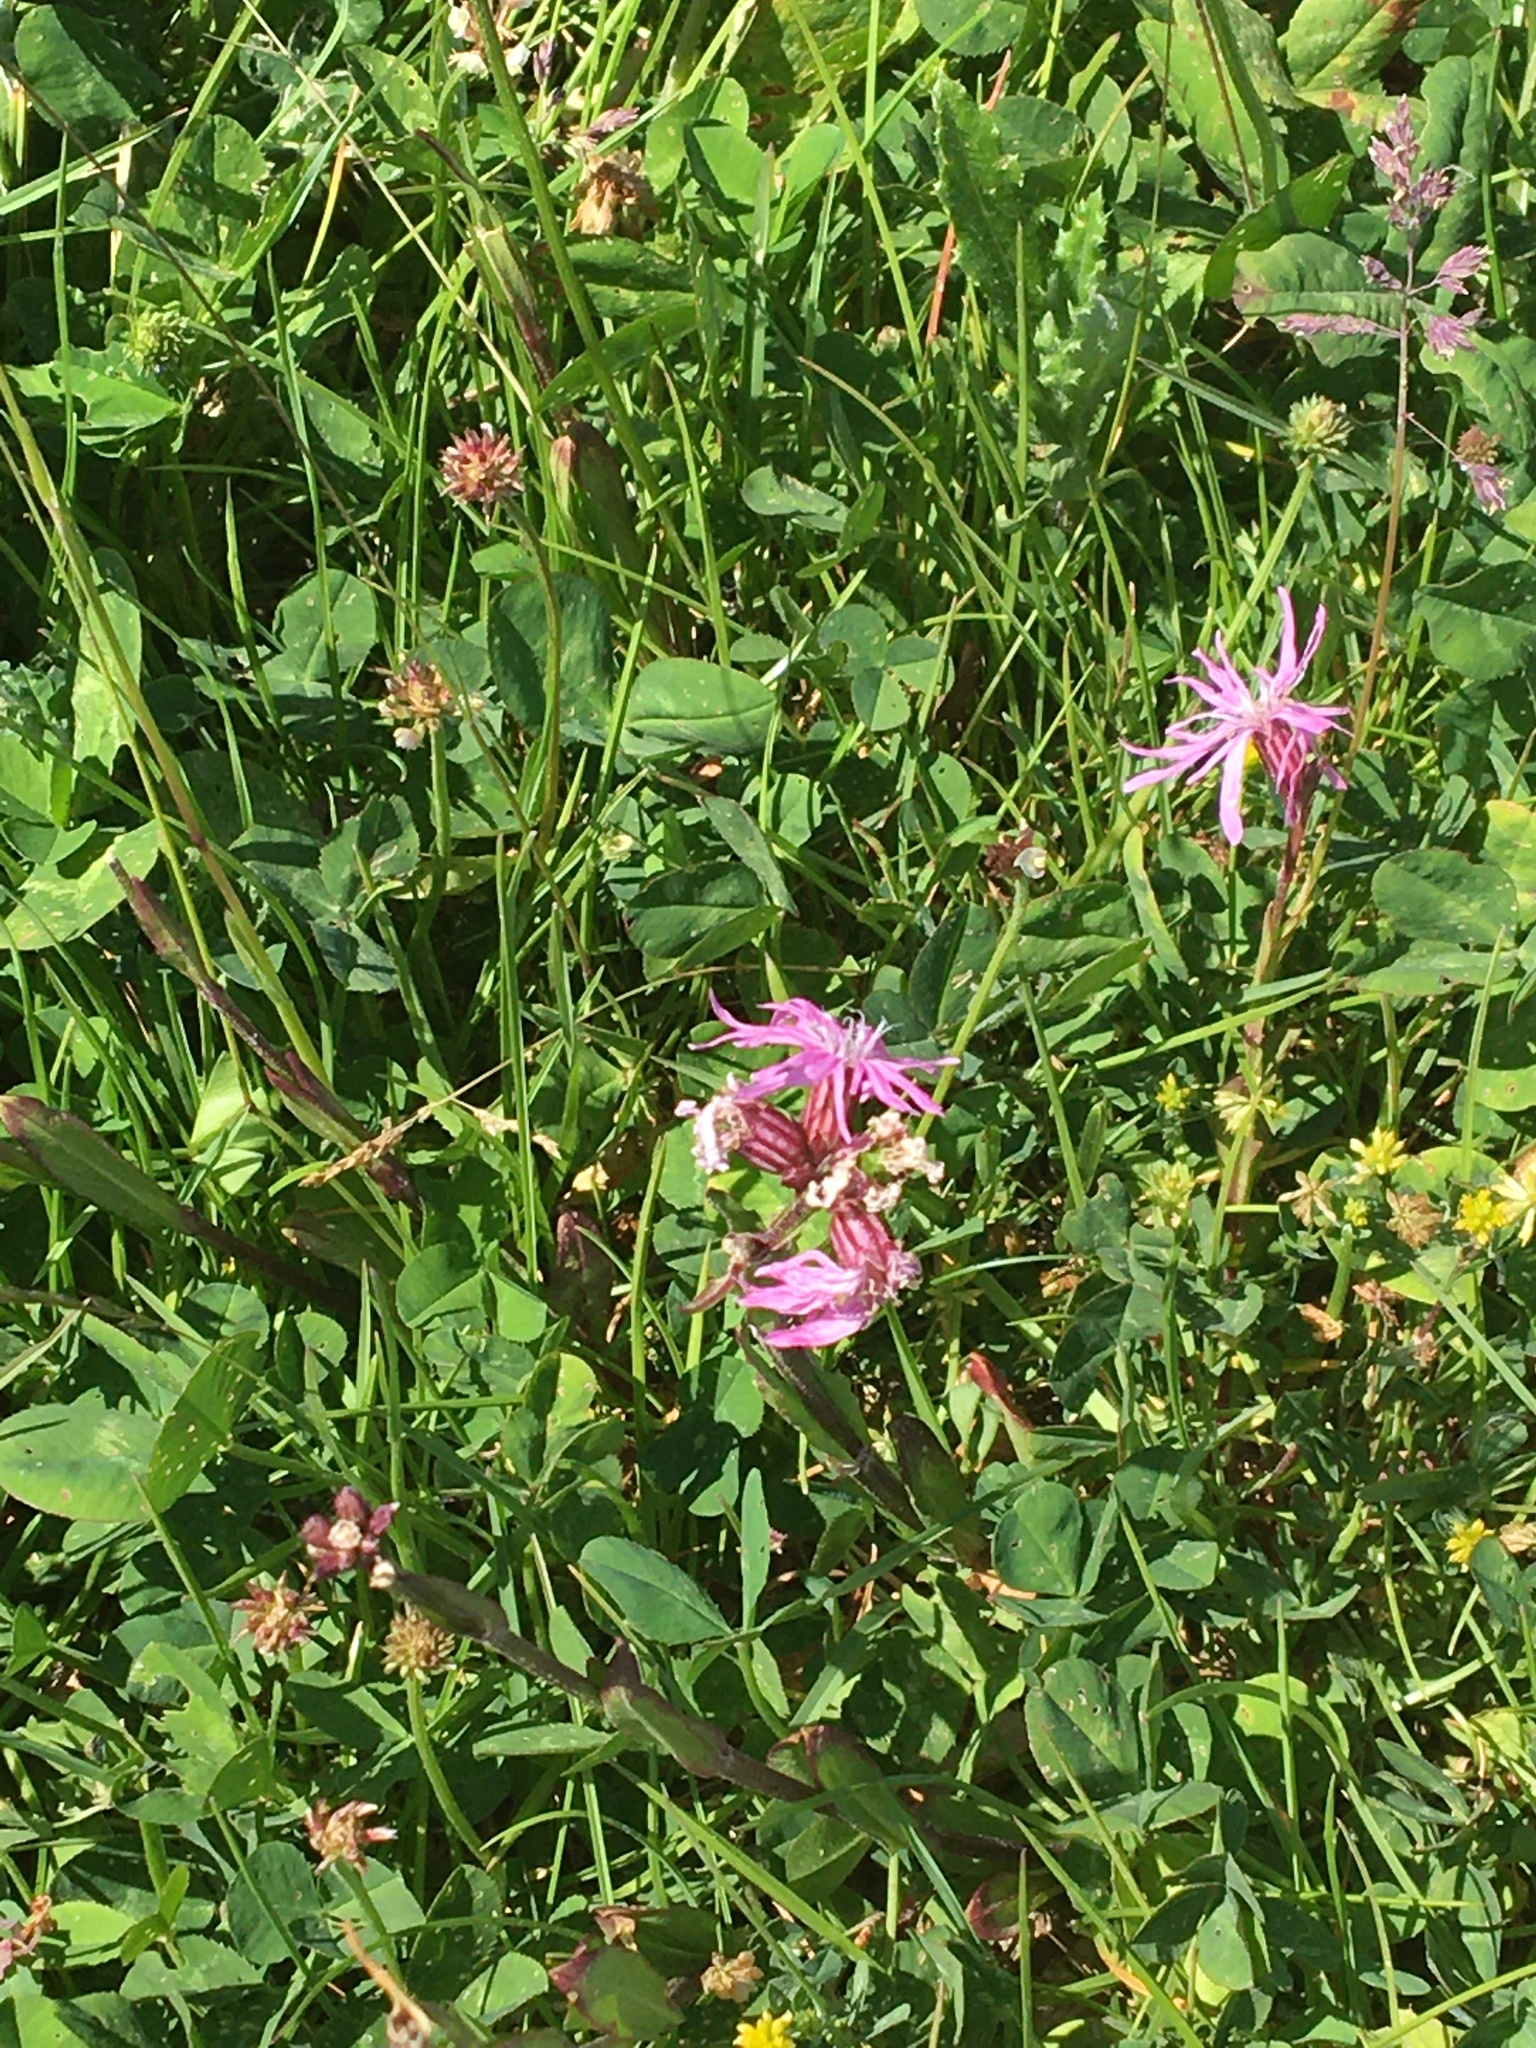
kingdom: Plantae
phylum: Tracheophyta
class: Magnoliopsida
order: Caryophyllales
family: Caryophyllaceae
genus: Silene
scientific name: Silene flos-cuculi
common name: Ragged-robin
